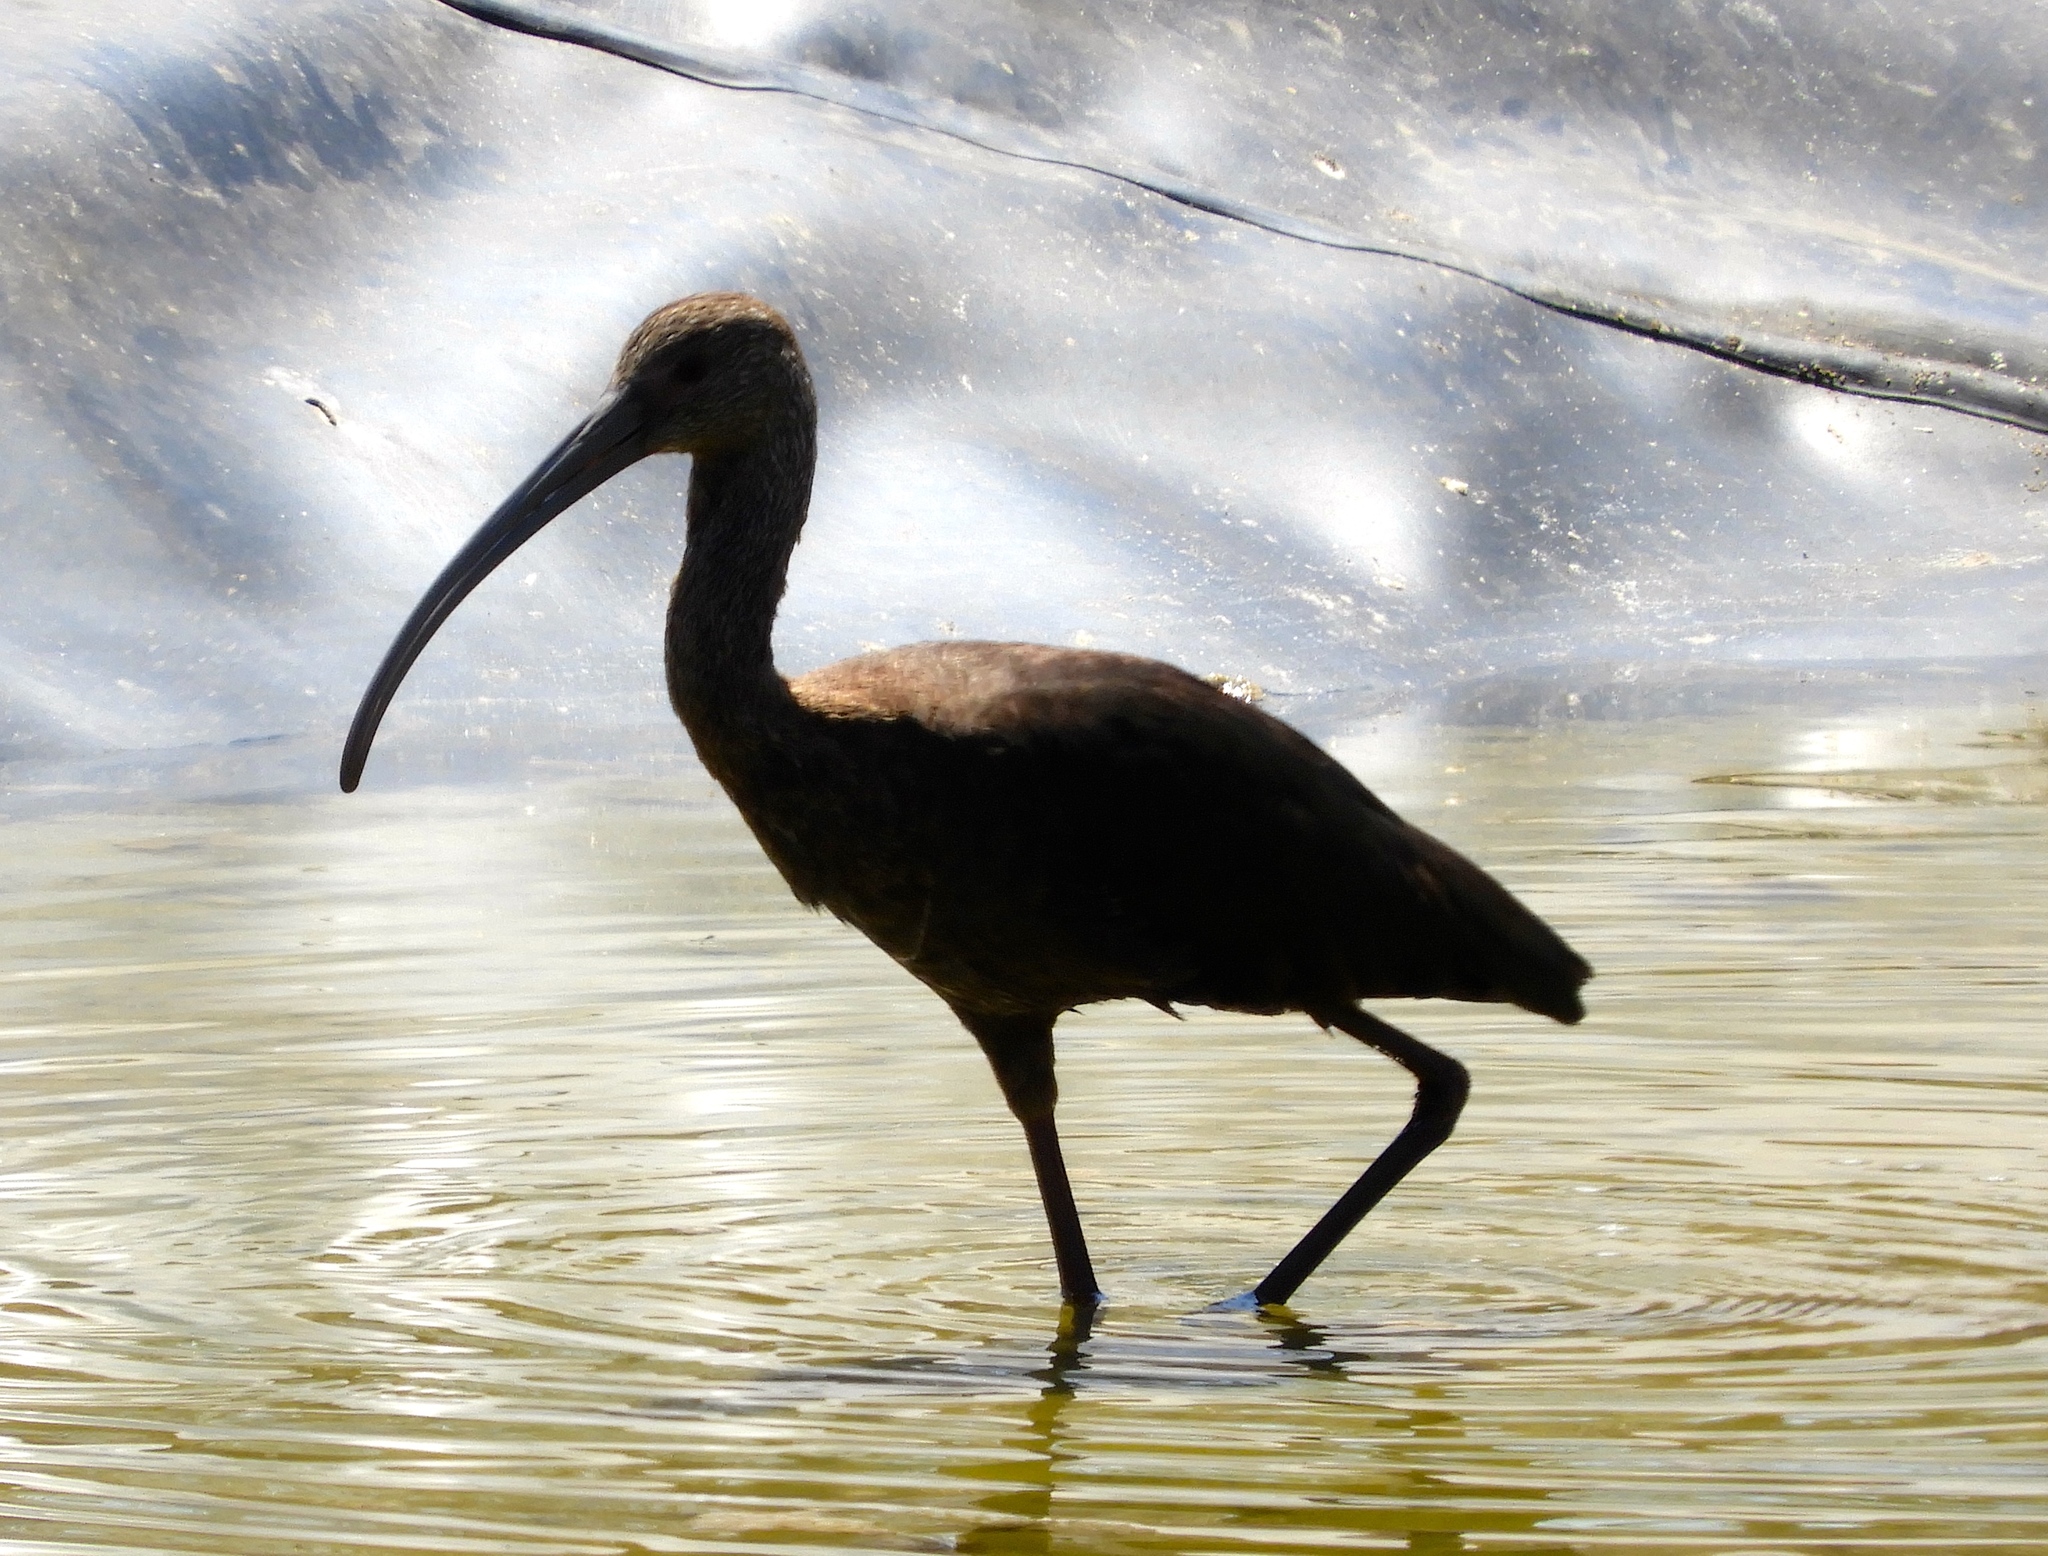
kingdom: Animalia
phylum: Chordata
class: Aves
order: Pelecaniformes
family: Threskiornithidae
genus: Plegadis
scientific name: Plegadis chihi
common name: White-faced ibis
